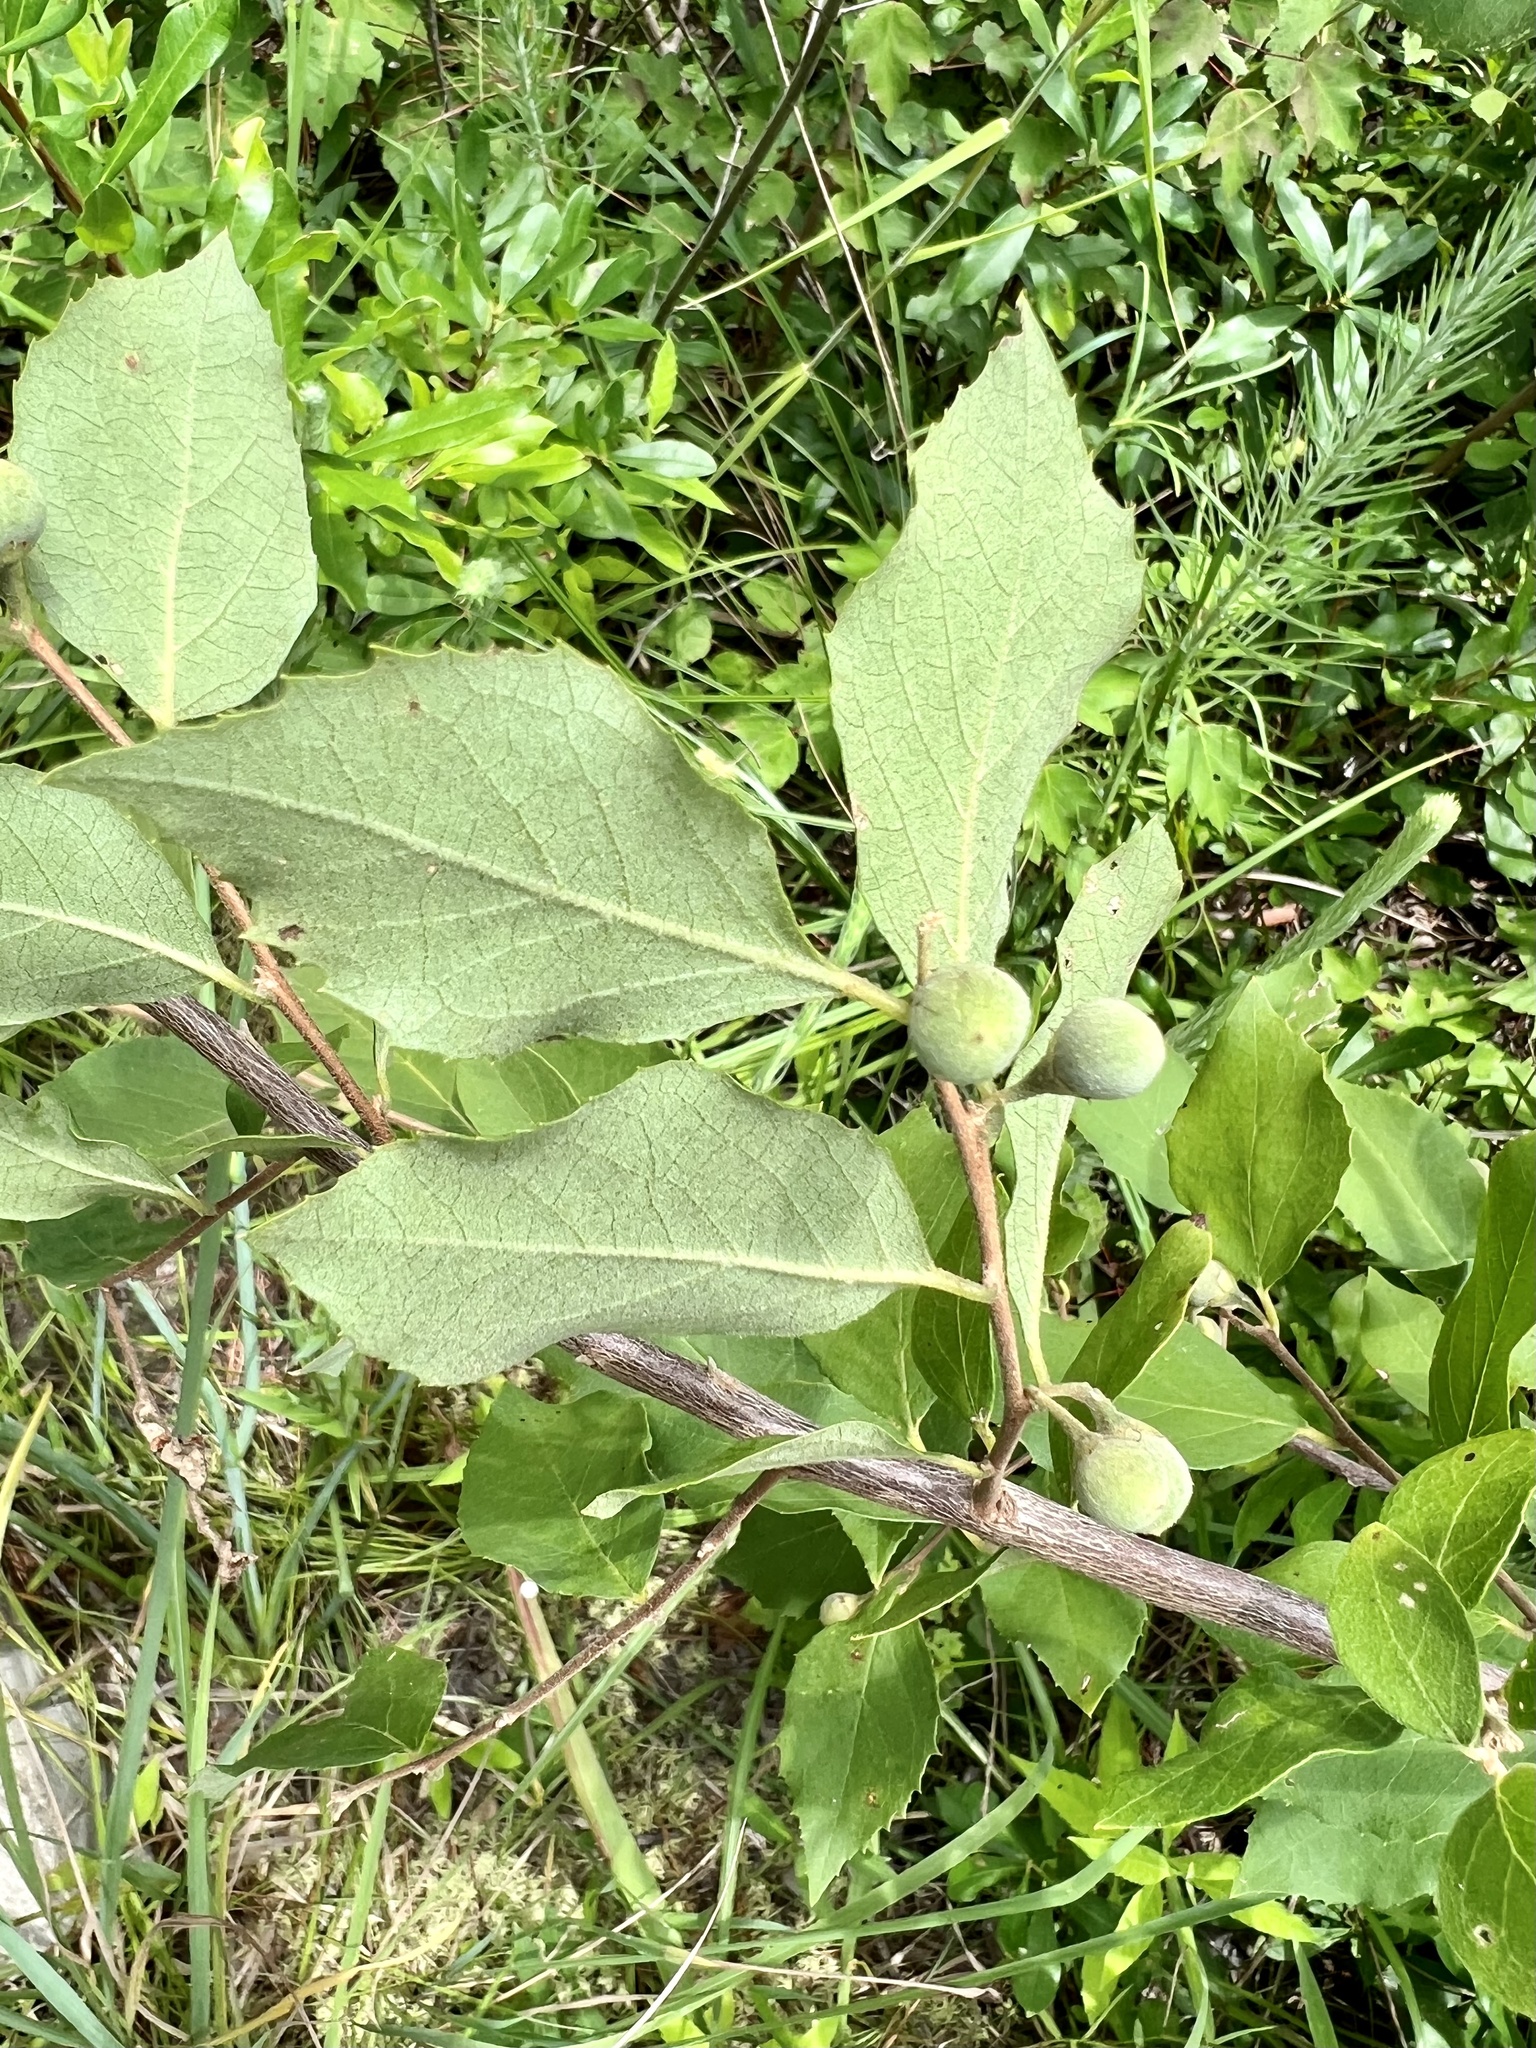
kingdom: Plantae
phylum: Tracheophyta
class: Magnoliopsida
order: Ericales
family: Styracaceae
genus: Styrax
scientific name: Styrax americanus
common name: American snowbell
